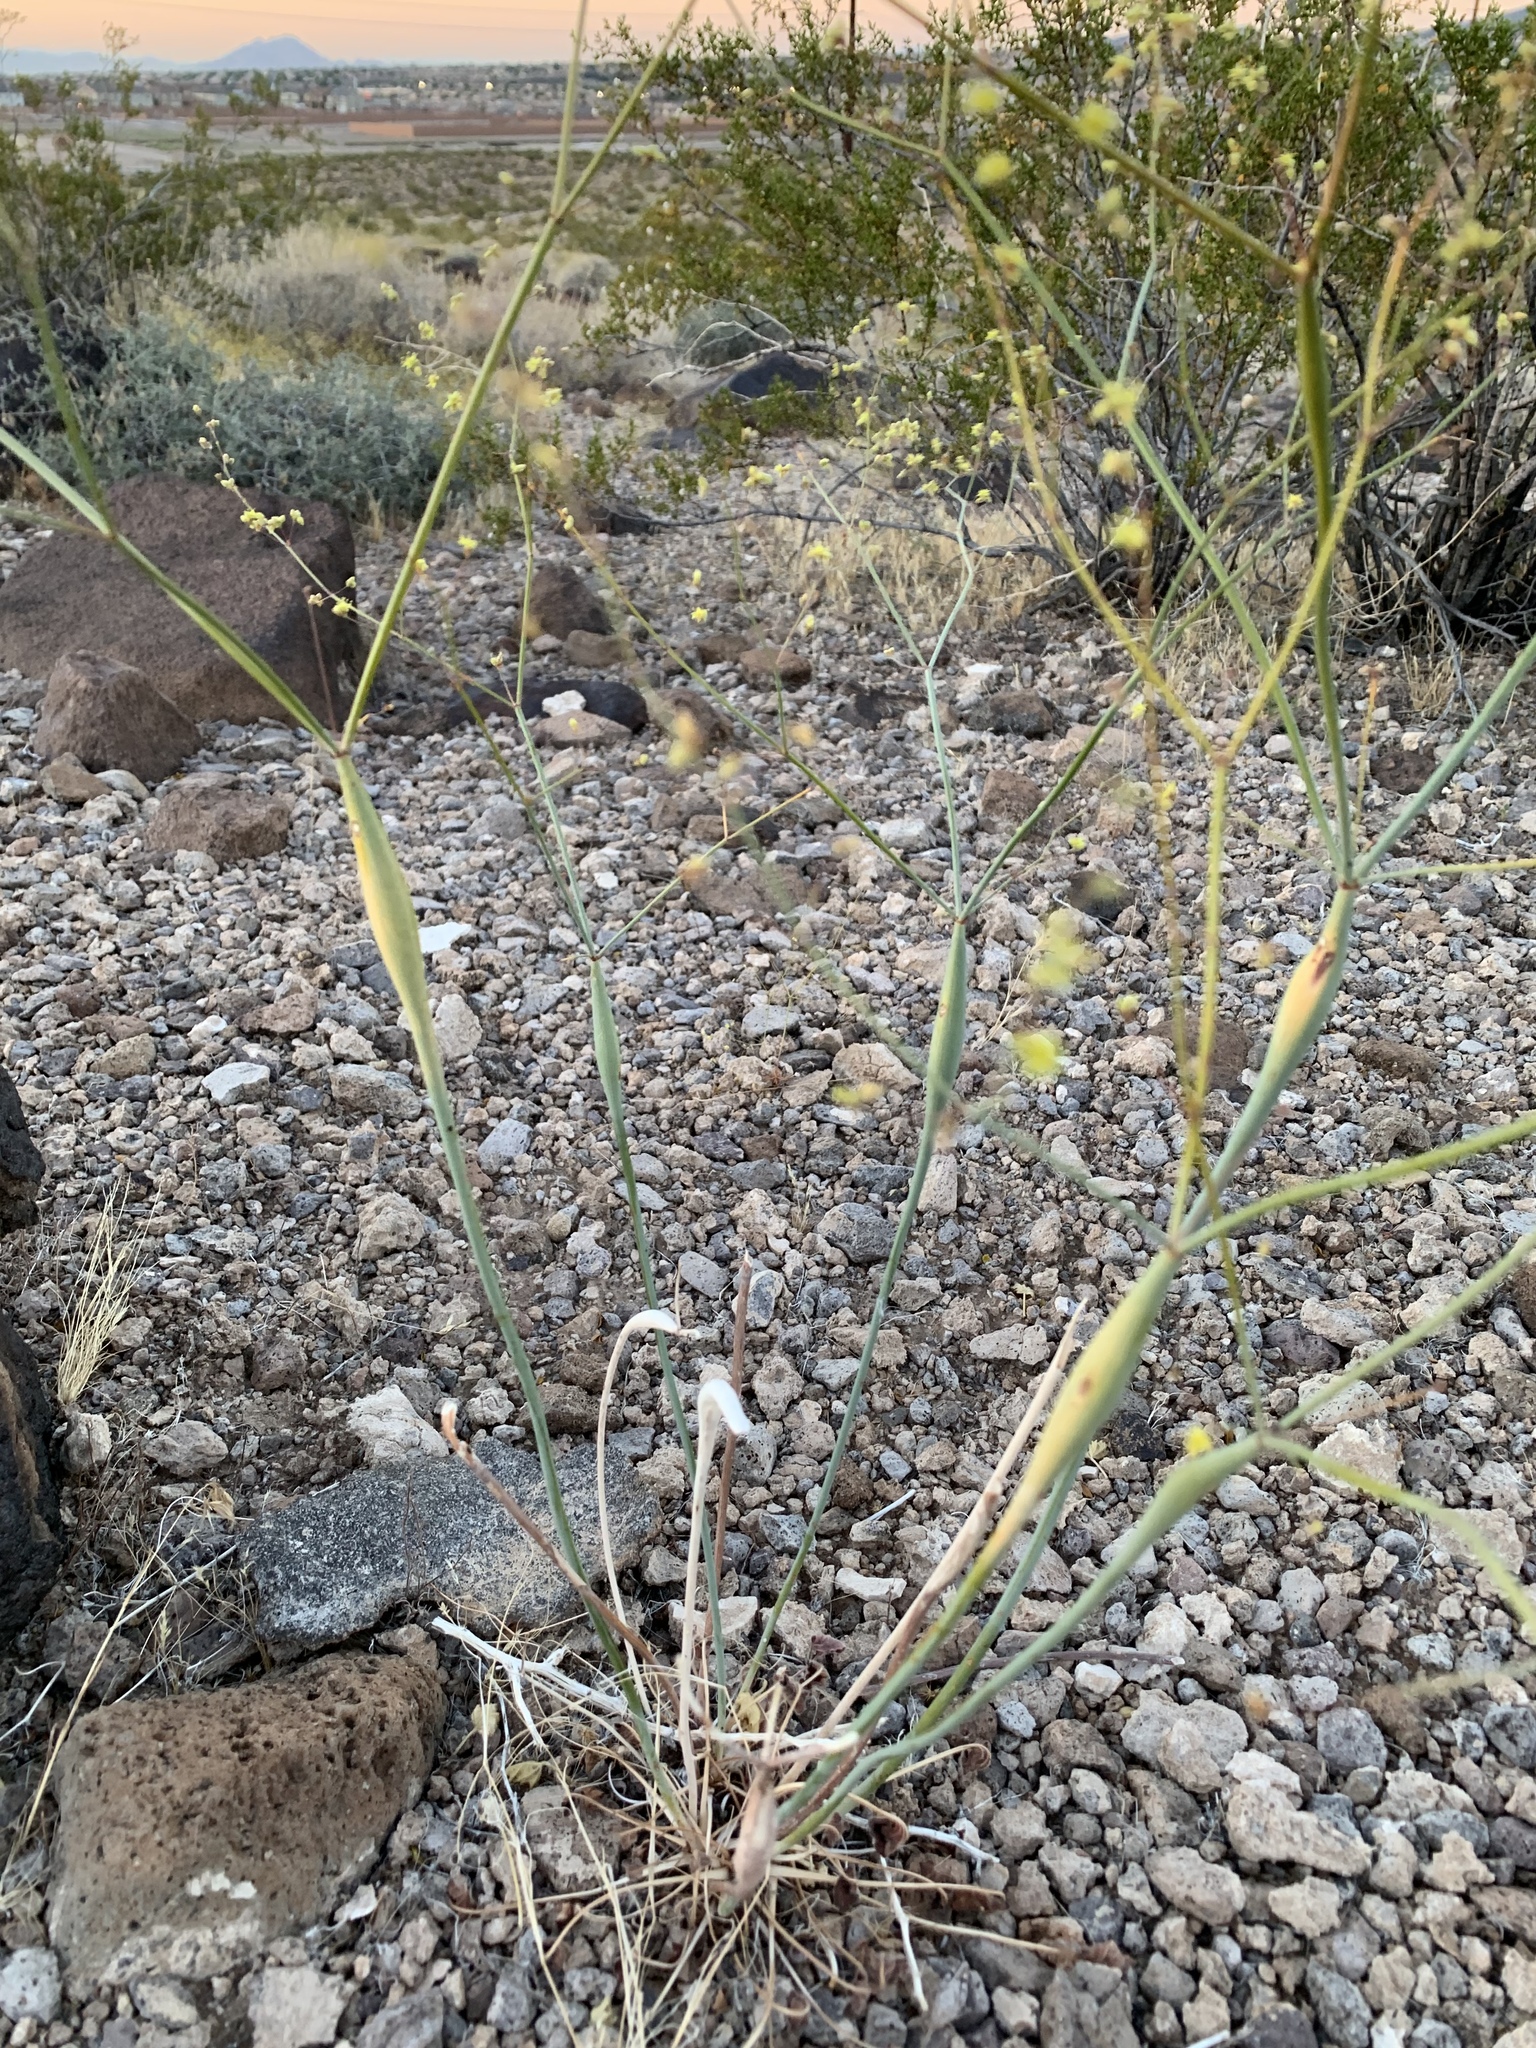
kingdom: Plantae
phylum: Tracheophyta
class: Magnoliopsida
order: Caryophyllales
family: Polygonaceae
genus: Eriogonum
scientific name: Eriogonum inflatum
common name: Desert trumpet
